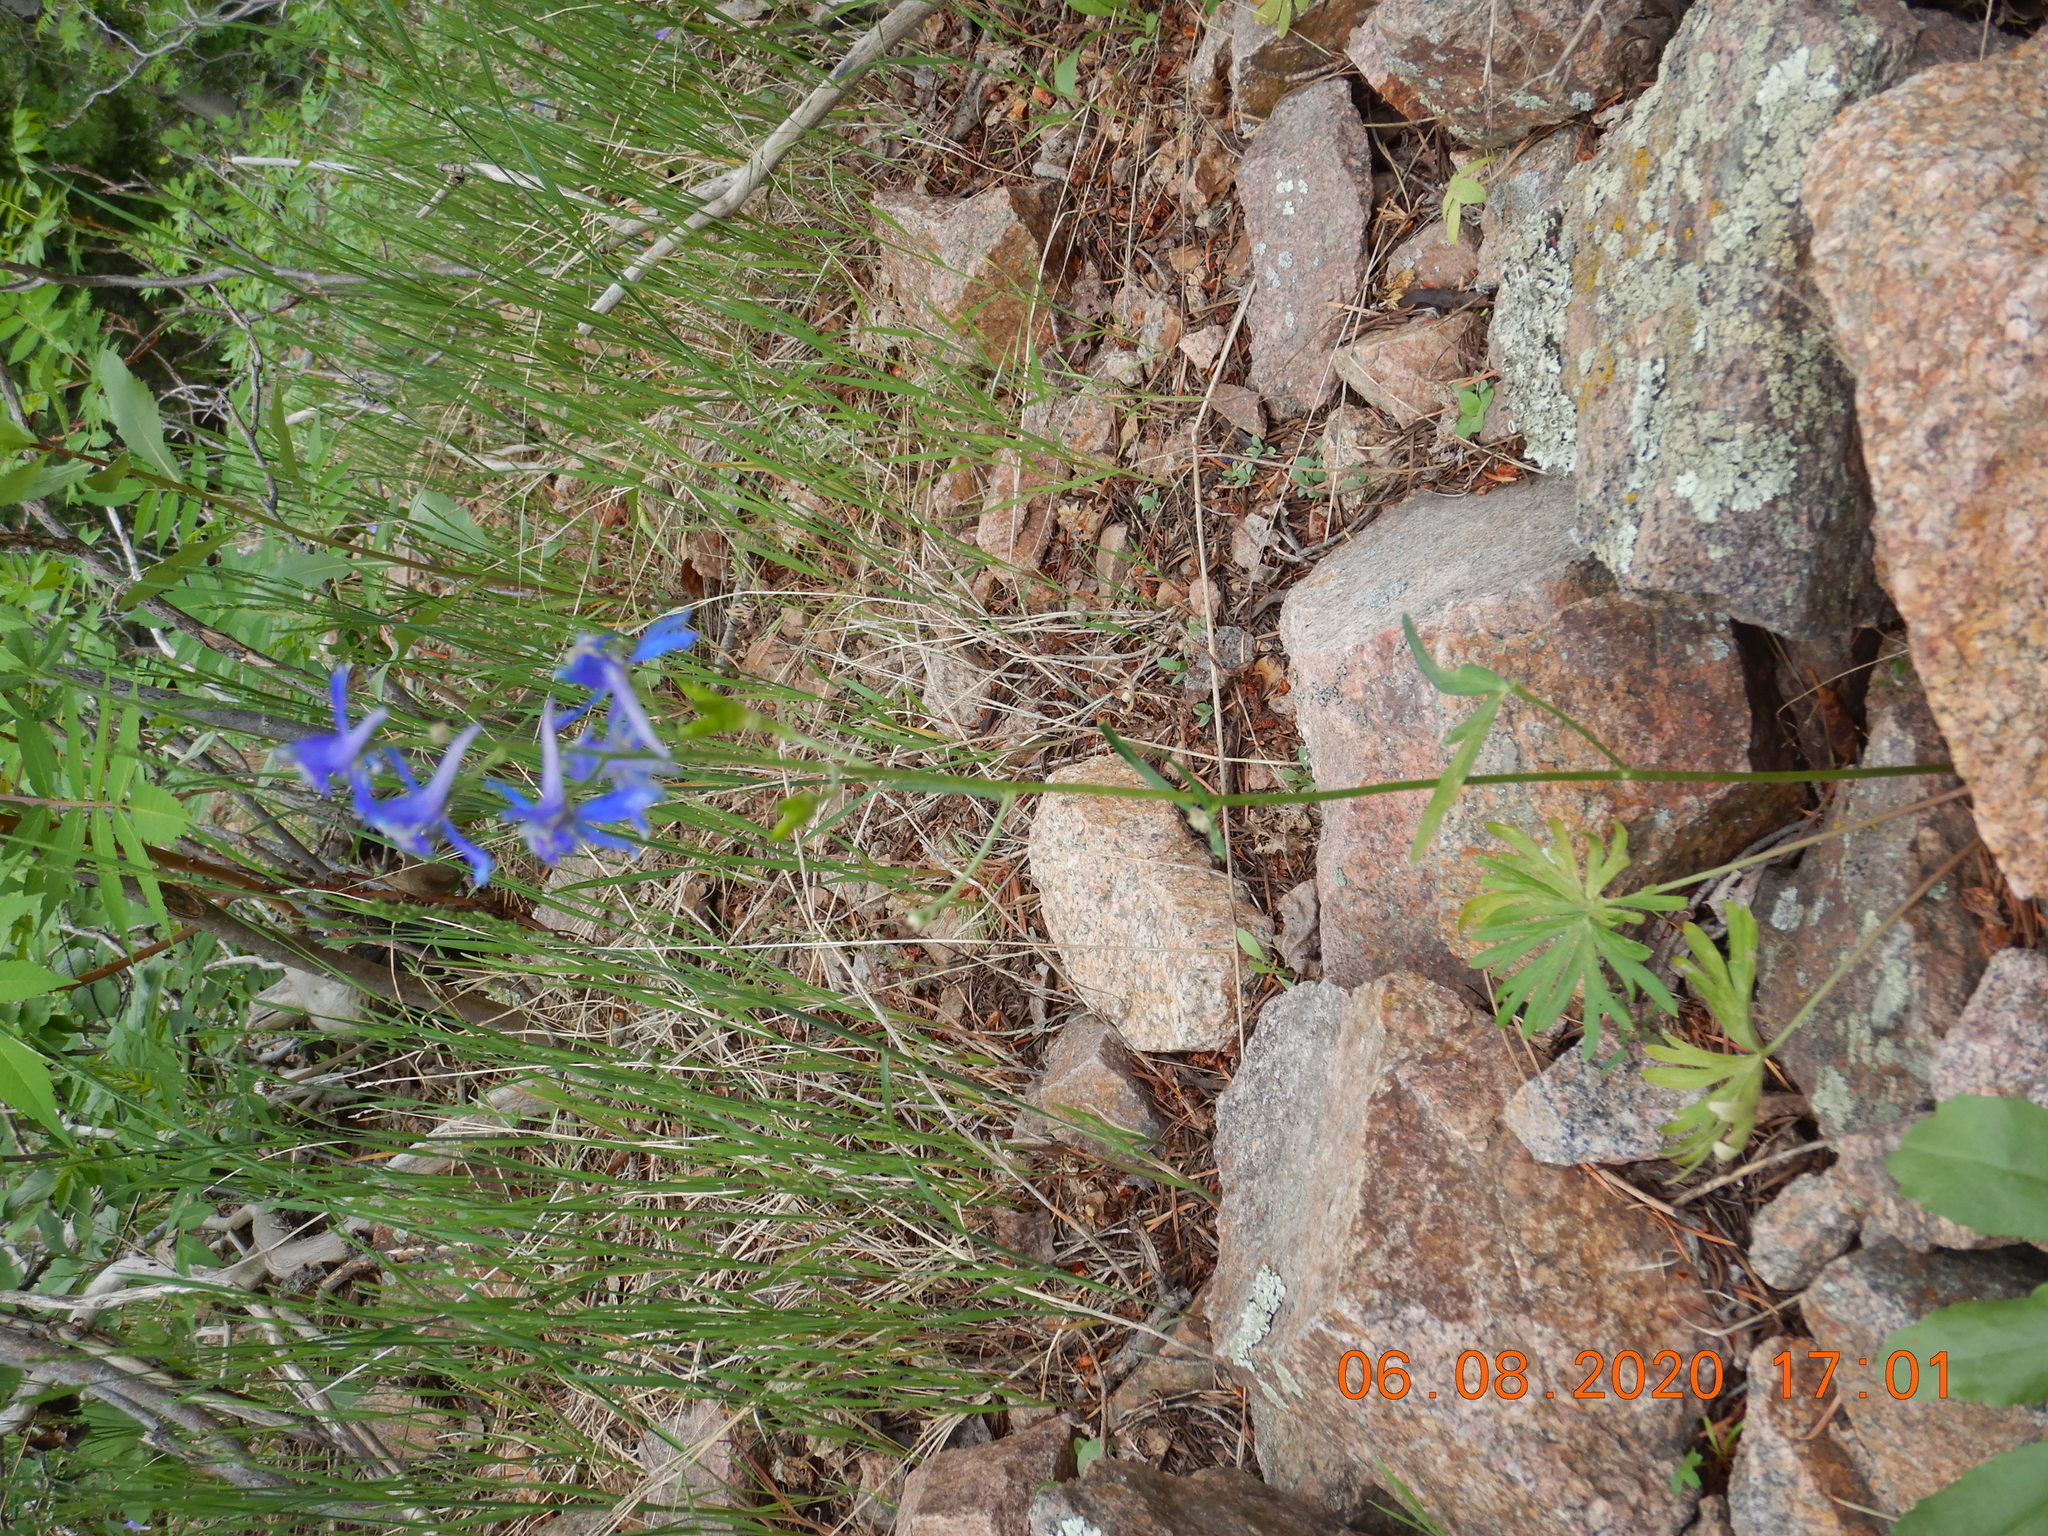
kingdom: Plantae
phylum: Tracheophyta
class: Magnoliopsida
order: Ranunculales
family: Ranunculaceae
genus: Delphinium
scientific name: Delphinium nuttallianum
